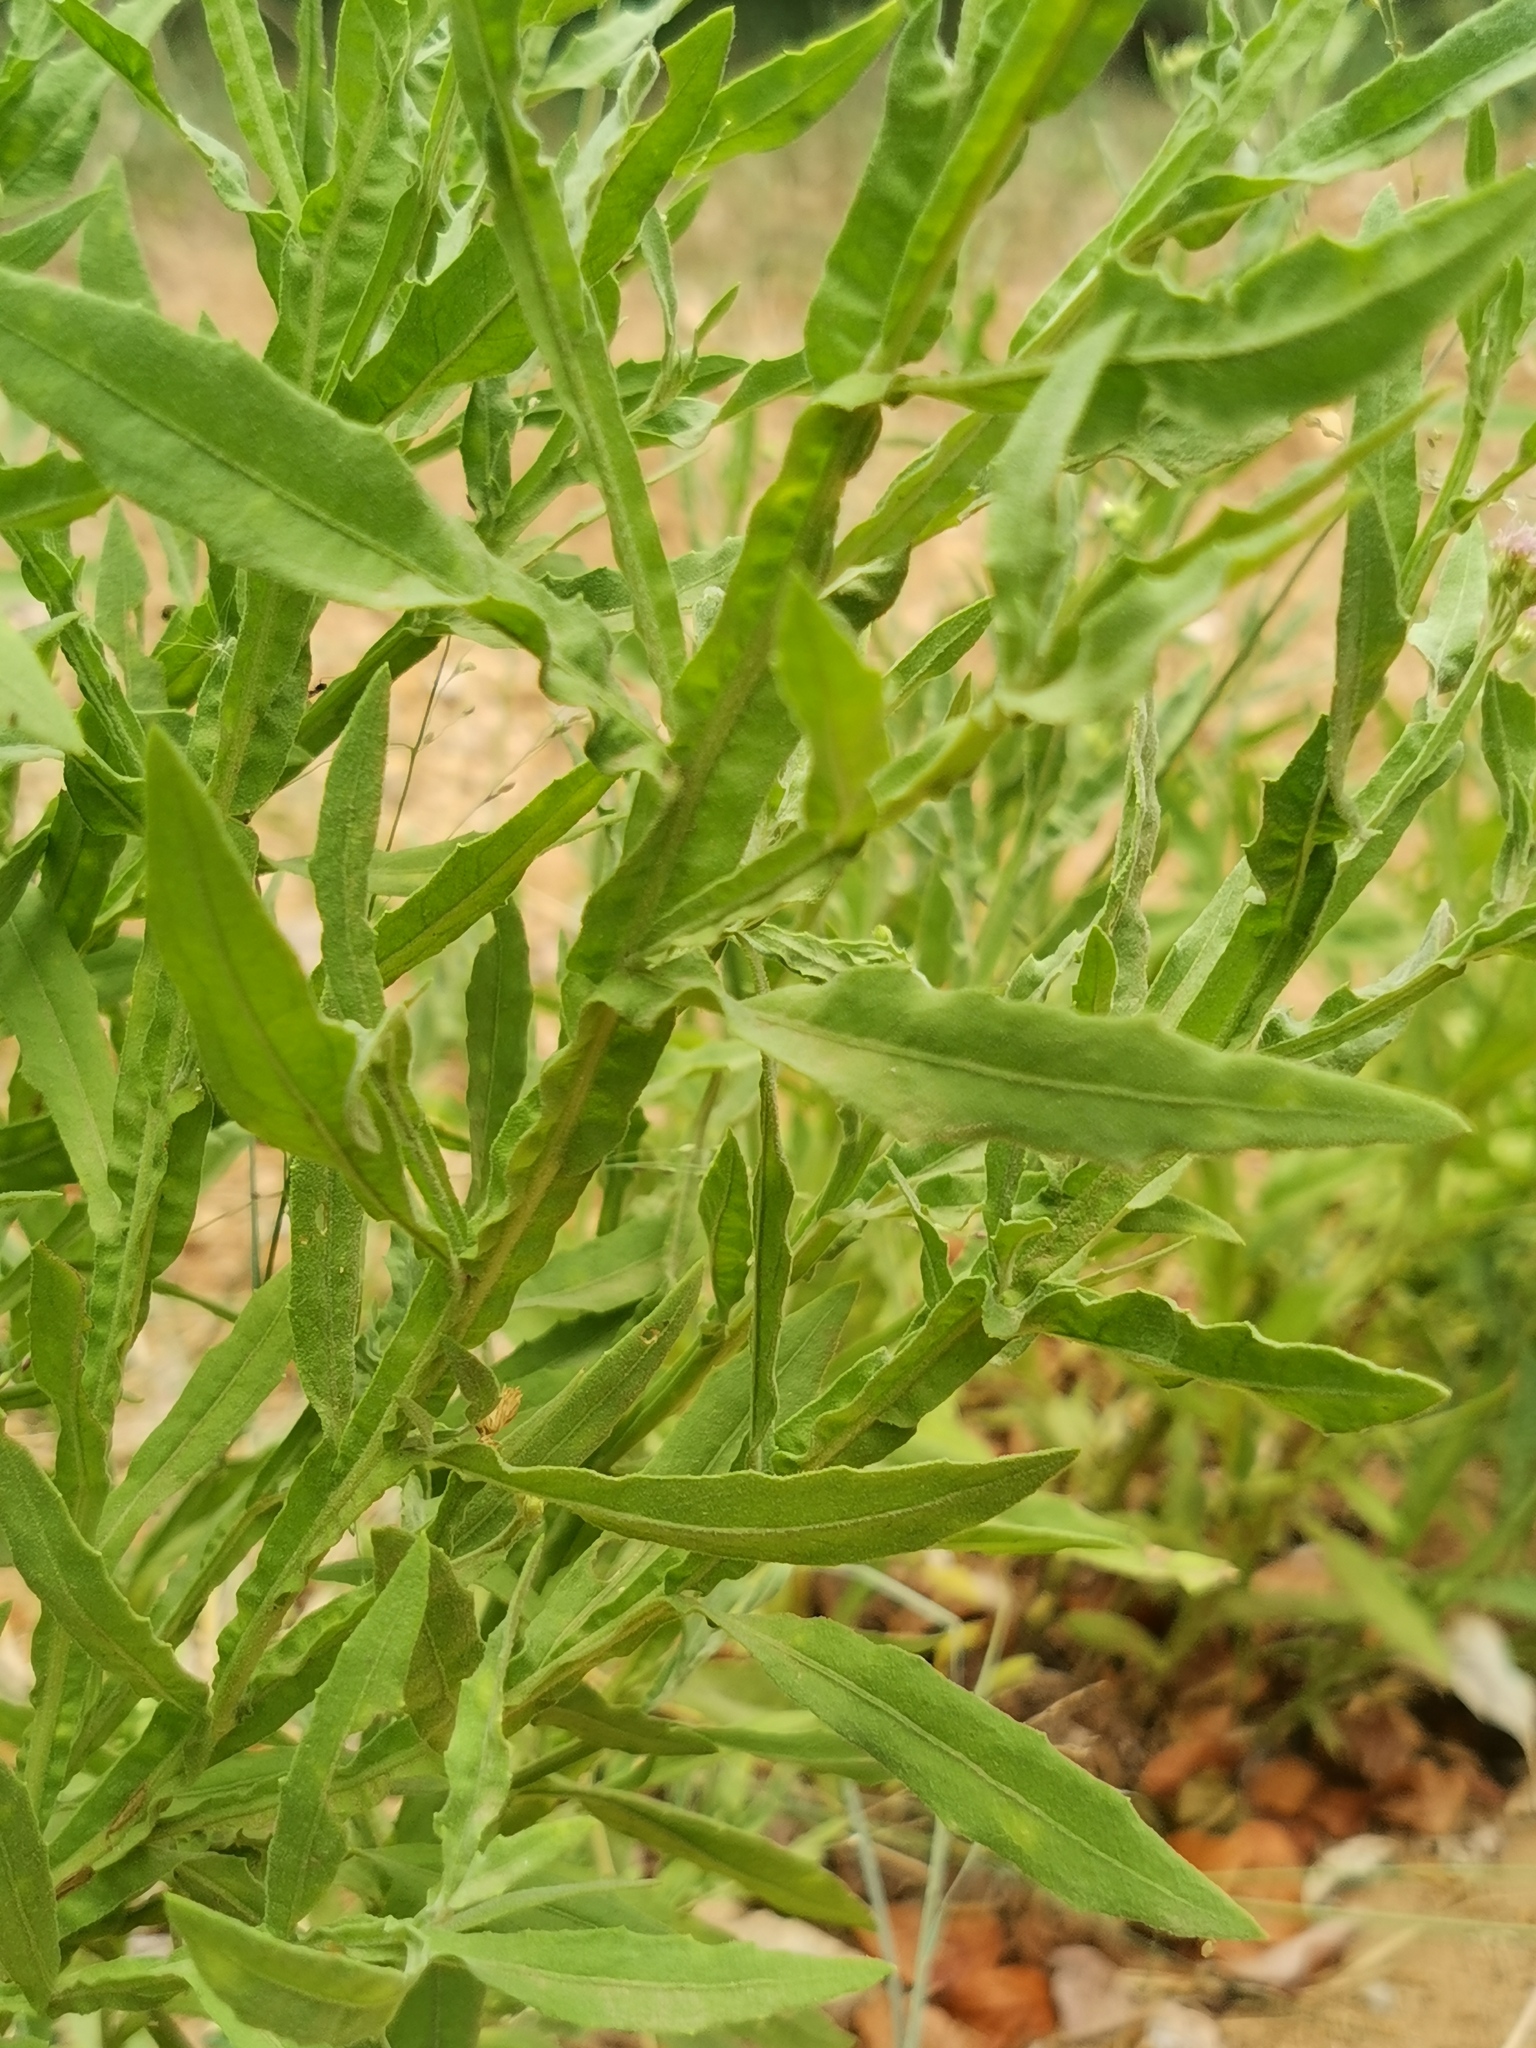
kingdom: Plantae
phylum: Tracheophyta
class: Magnoliopsida
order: Asterales
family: Asteraceae
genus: Litogyne
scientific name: Litogyne gariepina
